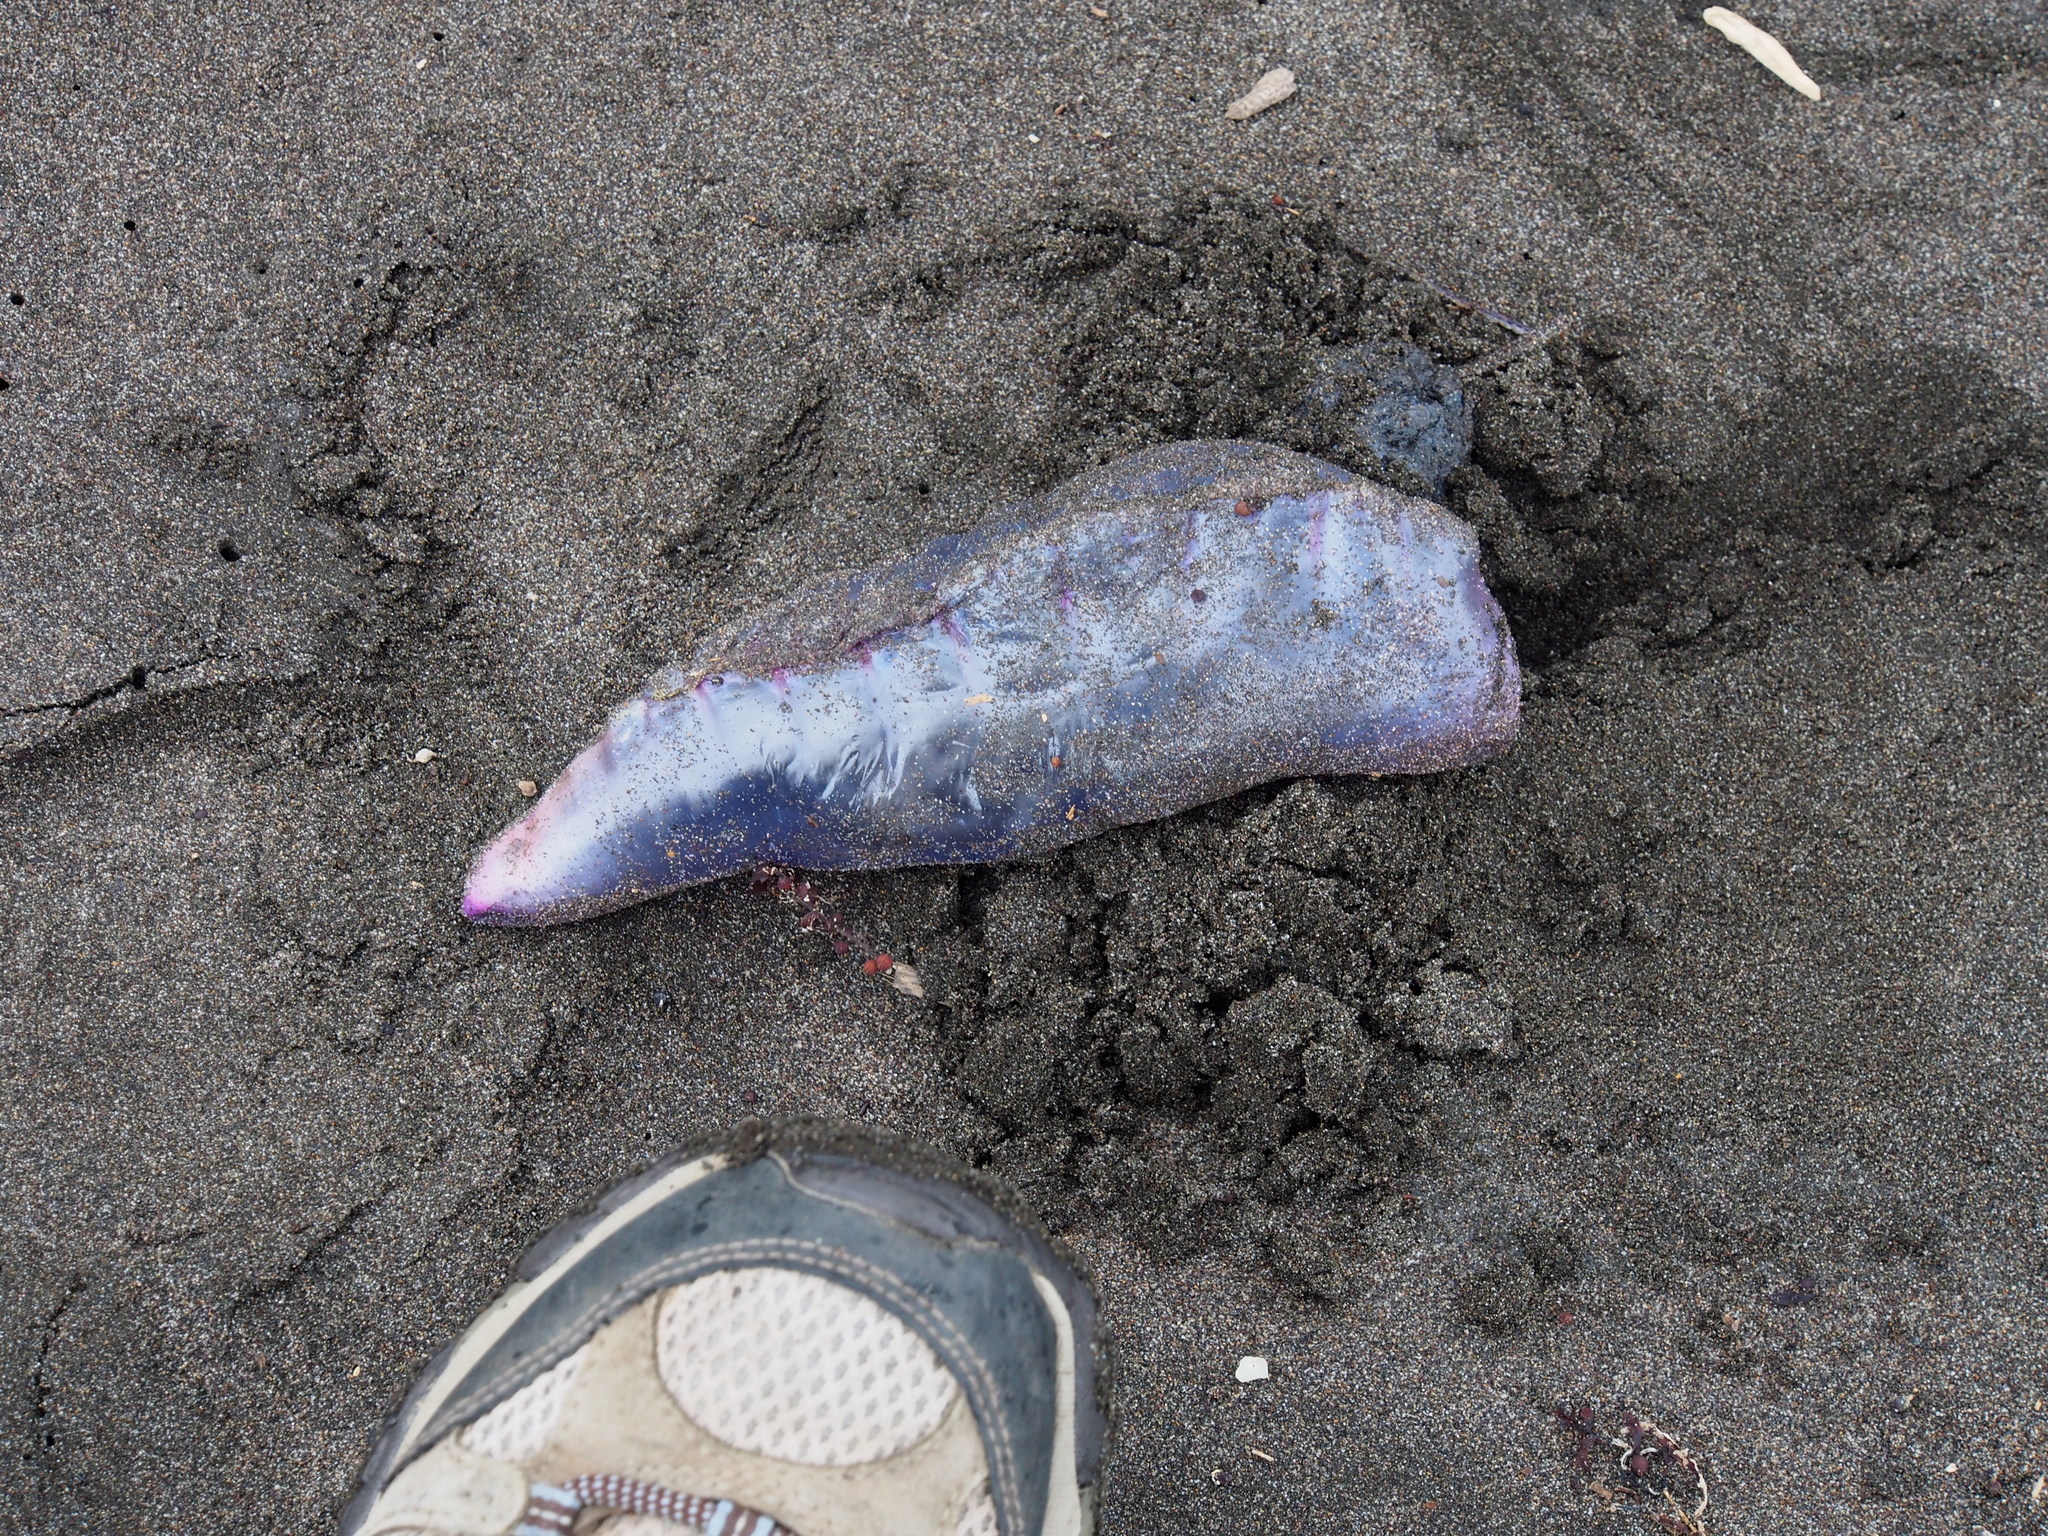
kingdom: Animalia
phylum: Cnidaria
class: Hydrozoa
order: Siphonophorae
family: Physaliidae
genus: Physalia
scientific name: Physalia physalis
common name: Portuguese man-of-war
